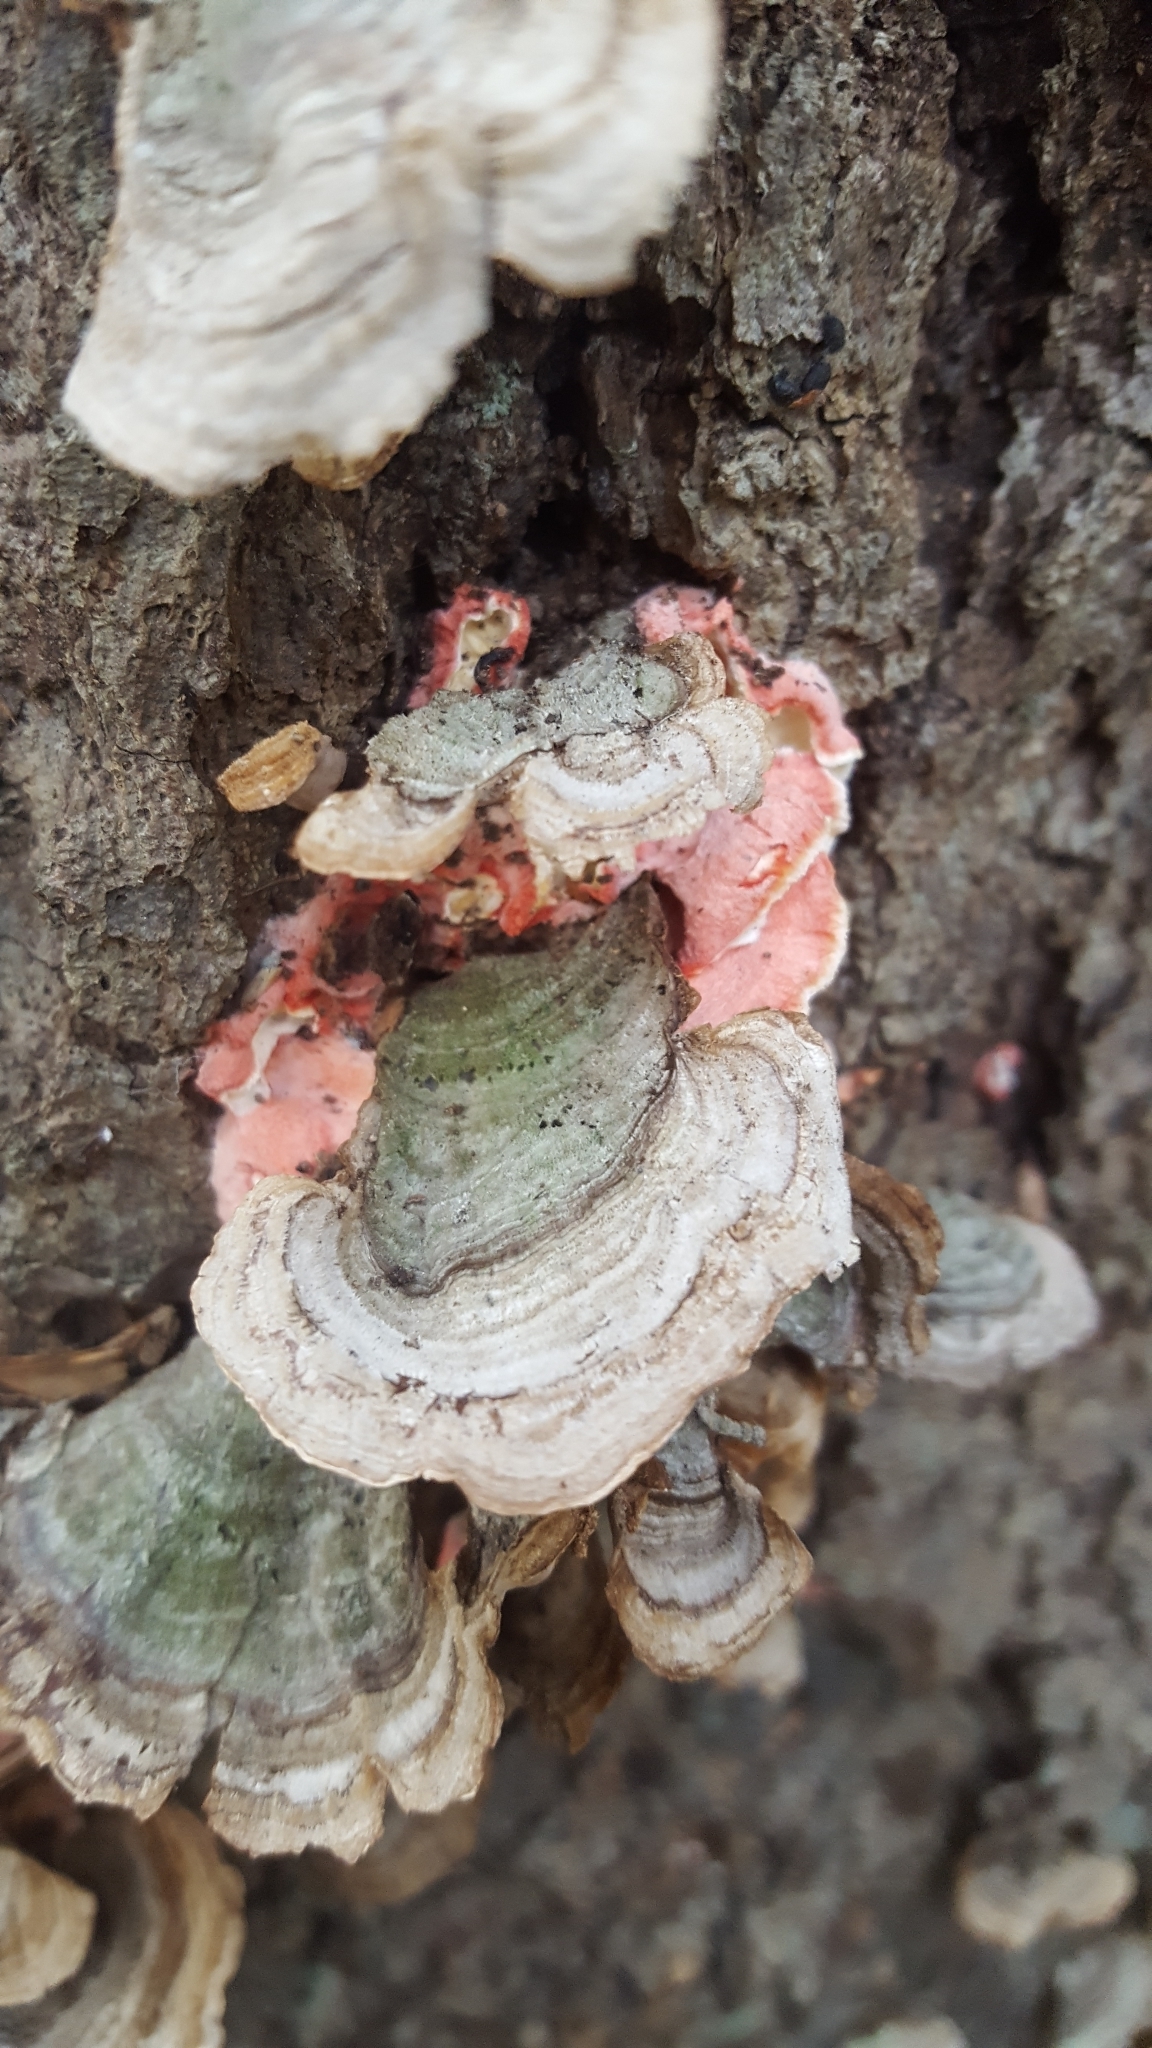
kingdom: Fungi
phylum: Basidiomycota
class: Agaricomycetes
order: Polyporales
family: Irpicaceae
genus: Byssomerulius
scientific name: Byssomerulius incarnatus
